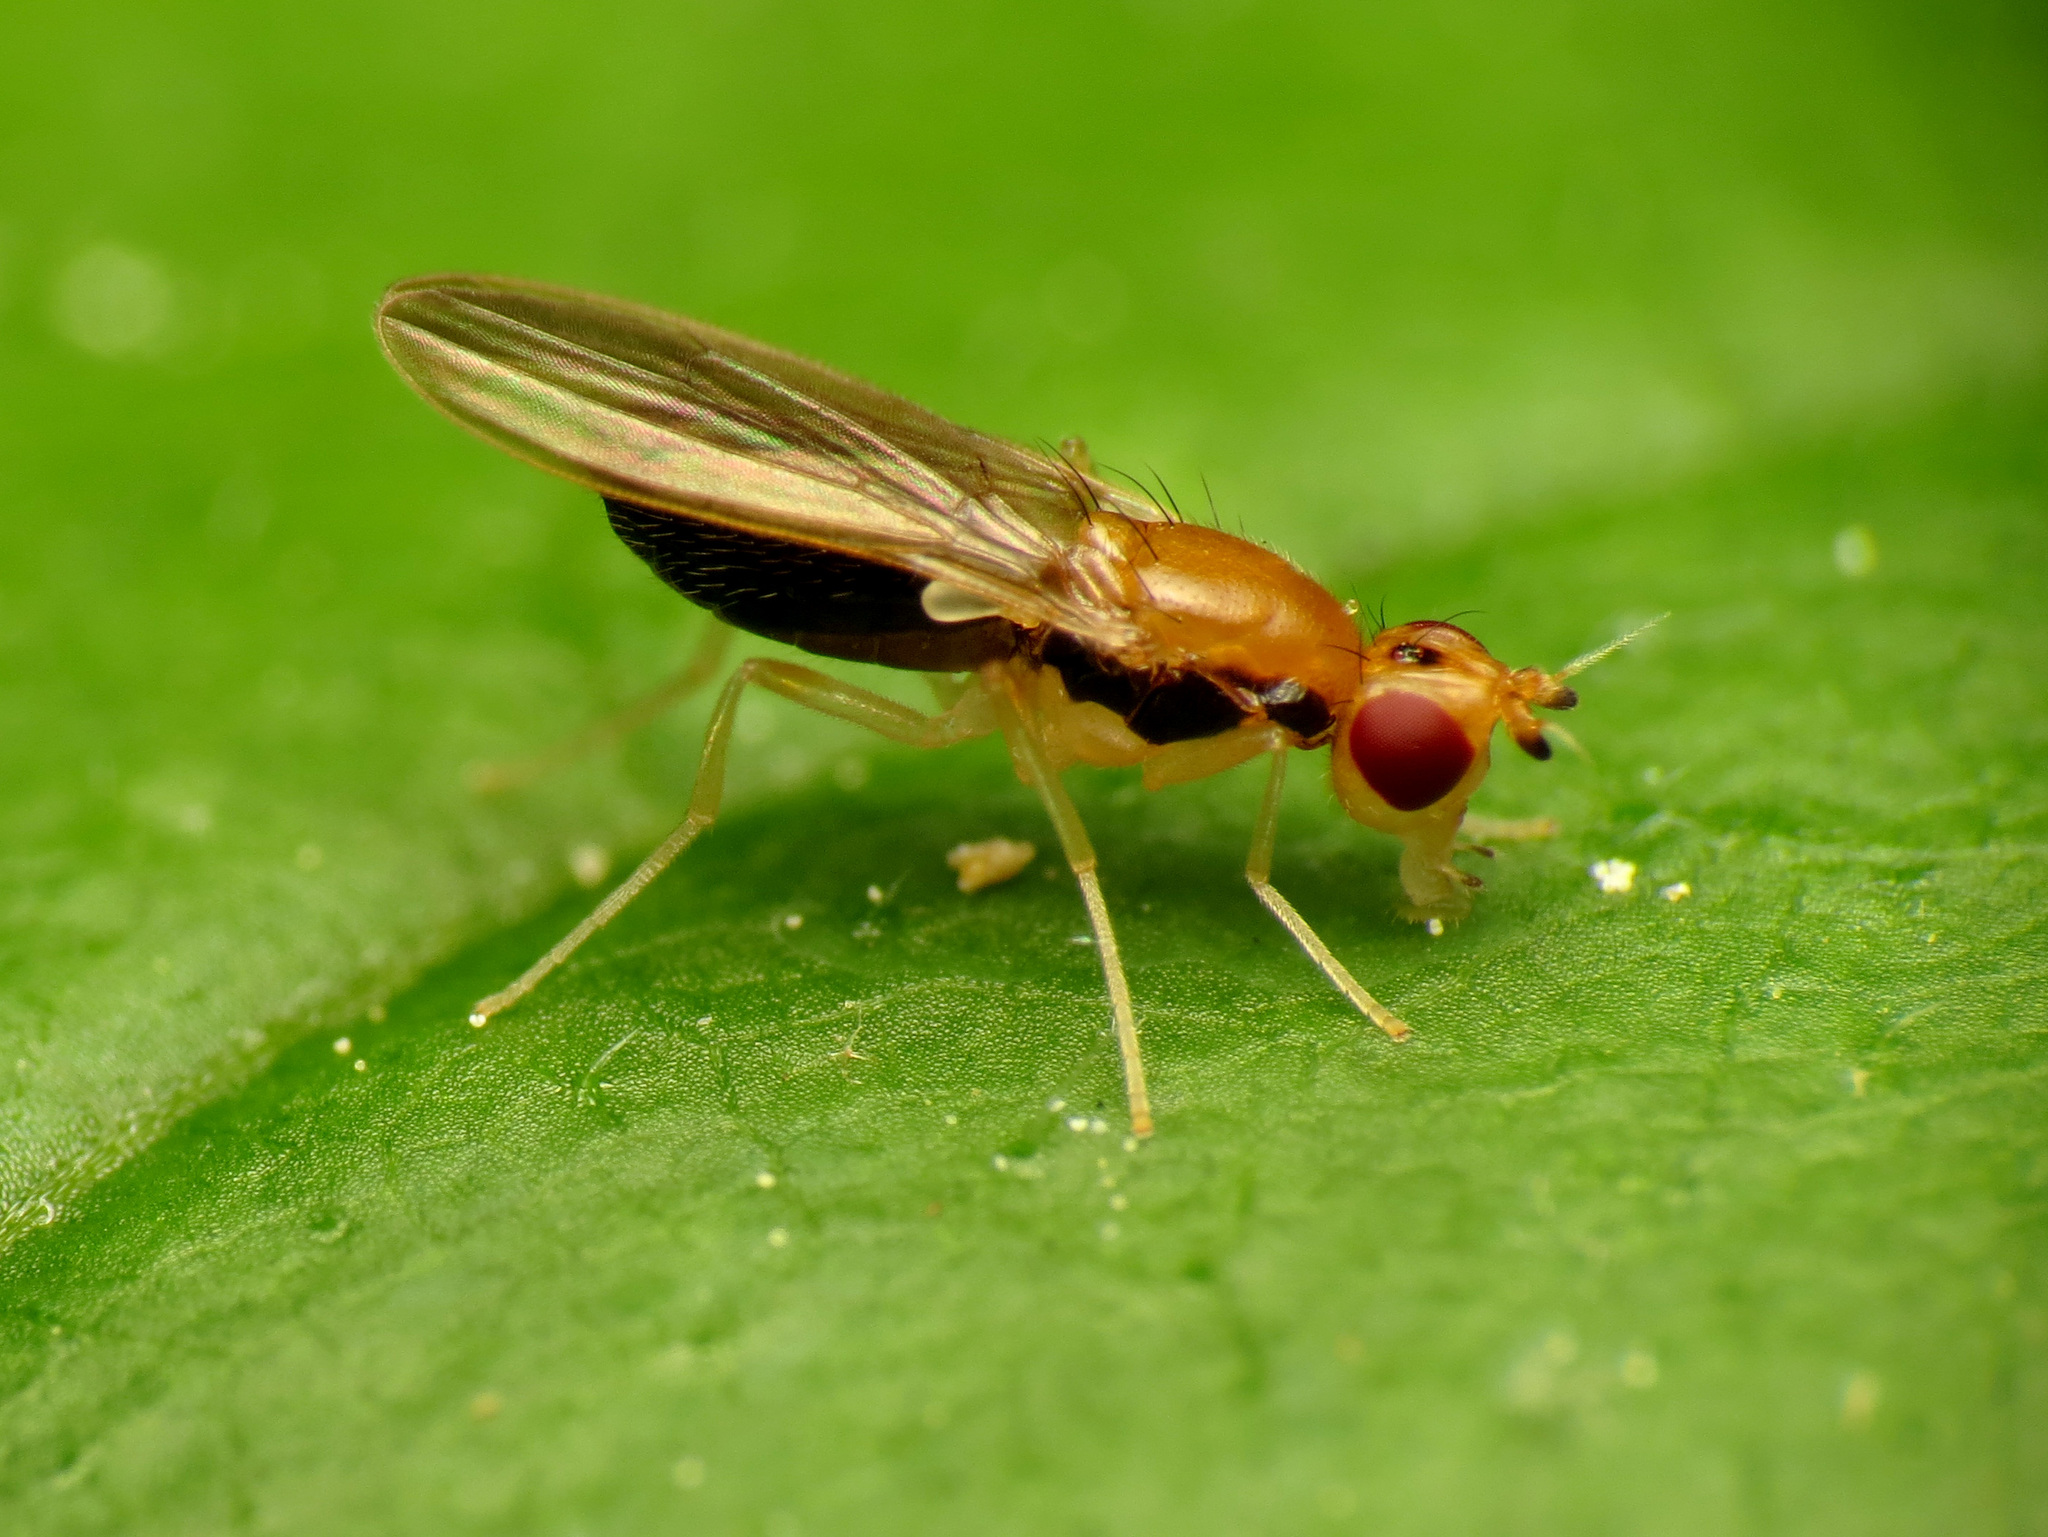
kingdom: Animalia
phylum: Arthropoda
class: Insecta
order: Diptera
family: Psilidae
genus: Psila
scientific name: Psila lateralis
